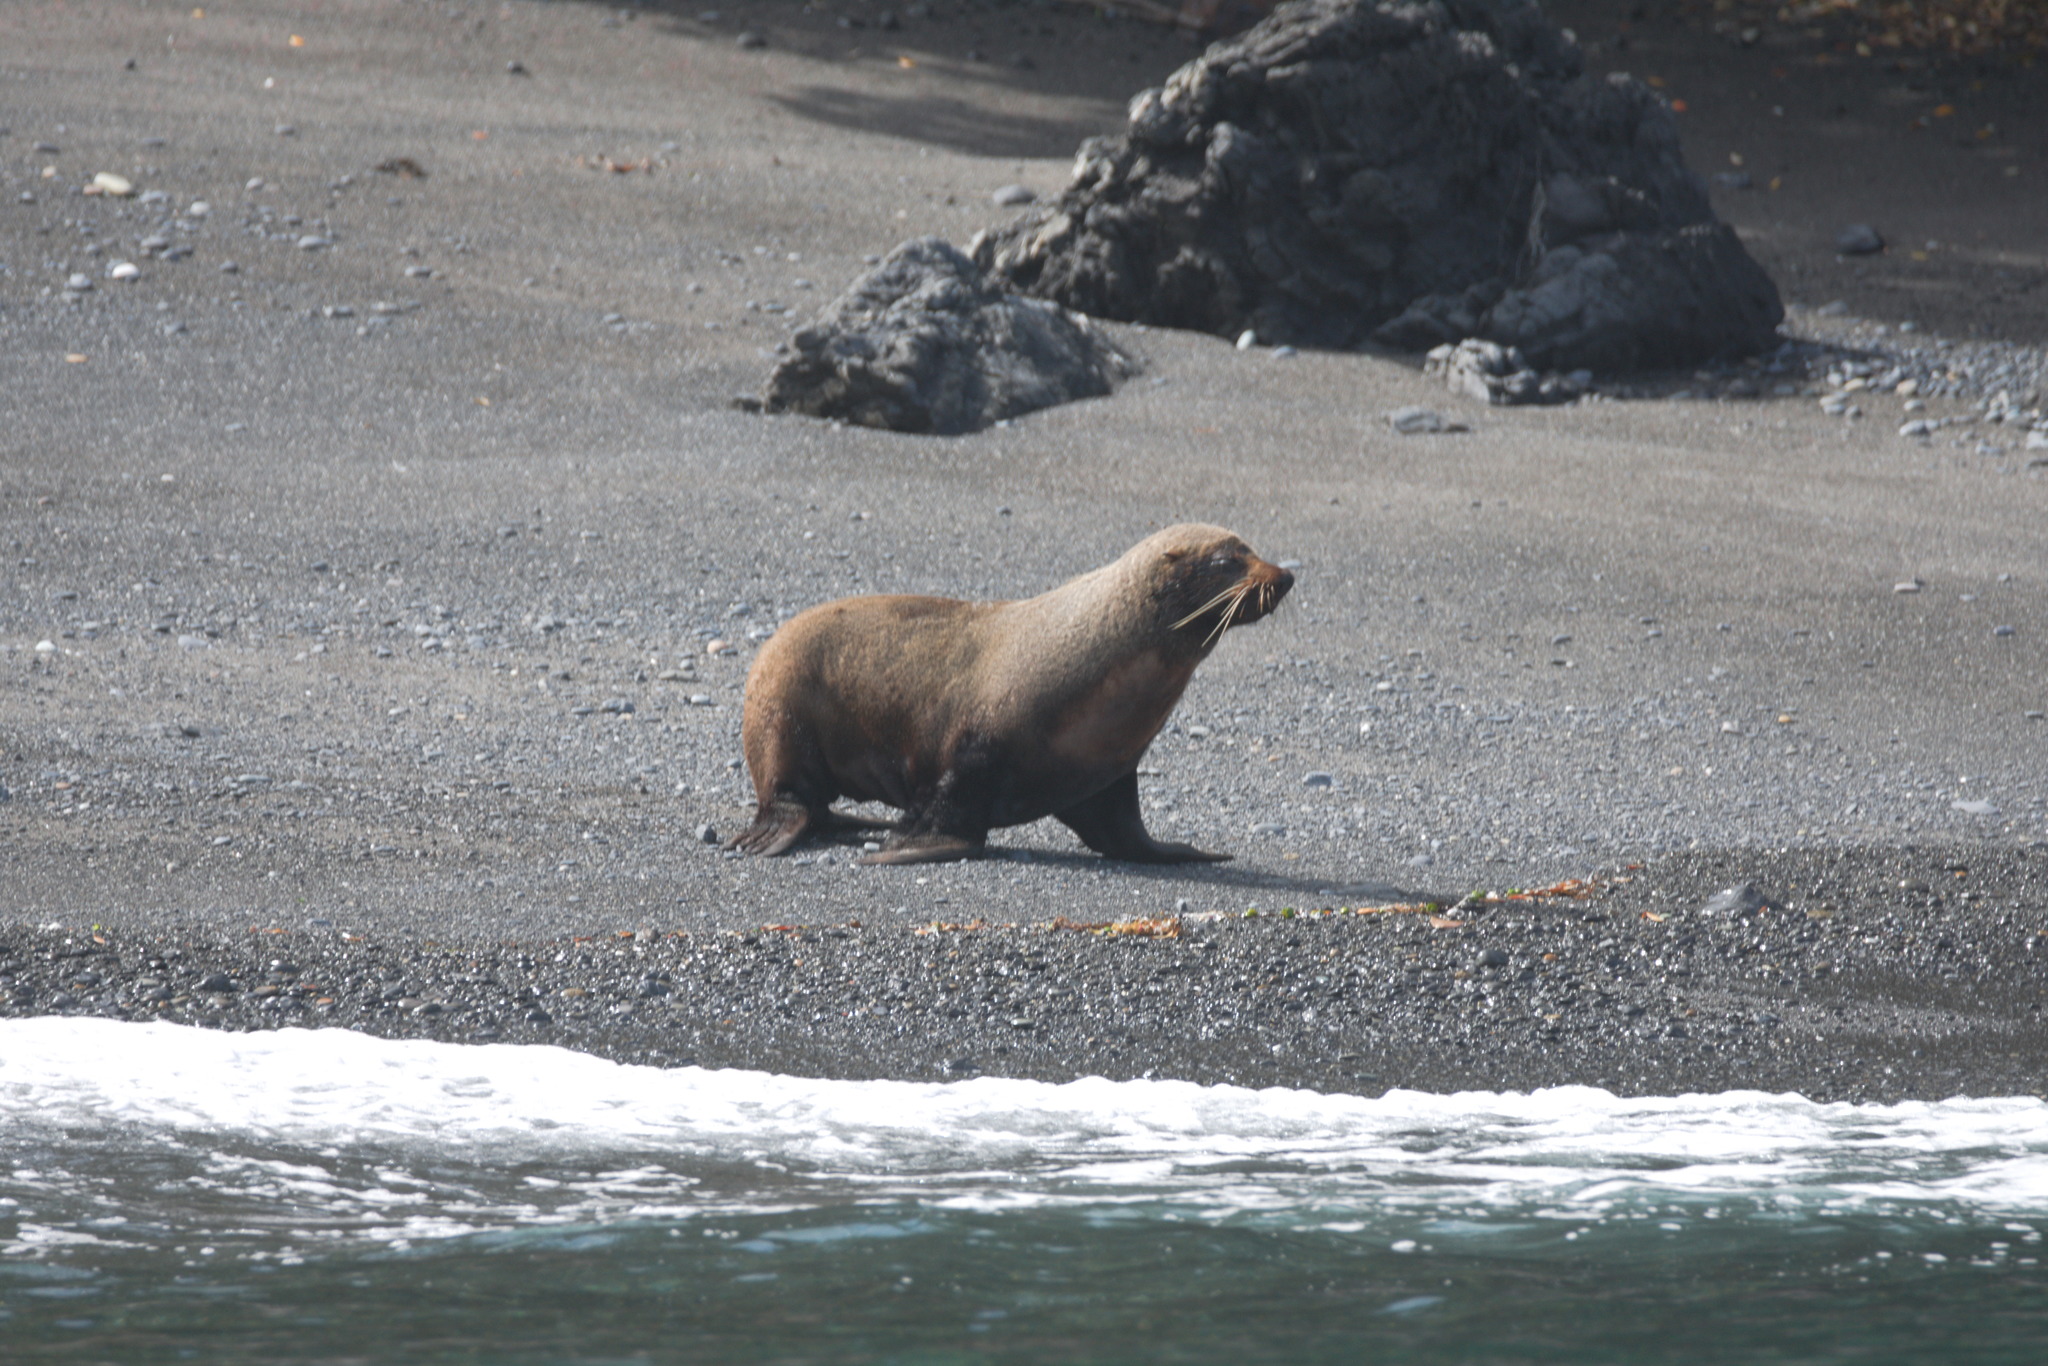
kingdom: Animalia
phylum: Chordata
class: Mammalia
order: Carnivora
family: Otariidae
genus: Arctocephalus
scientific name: Arctocephalus forsteri
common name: New zealand fur seal
